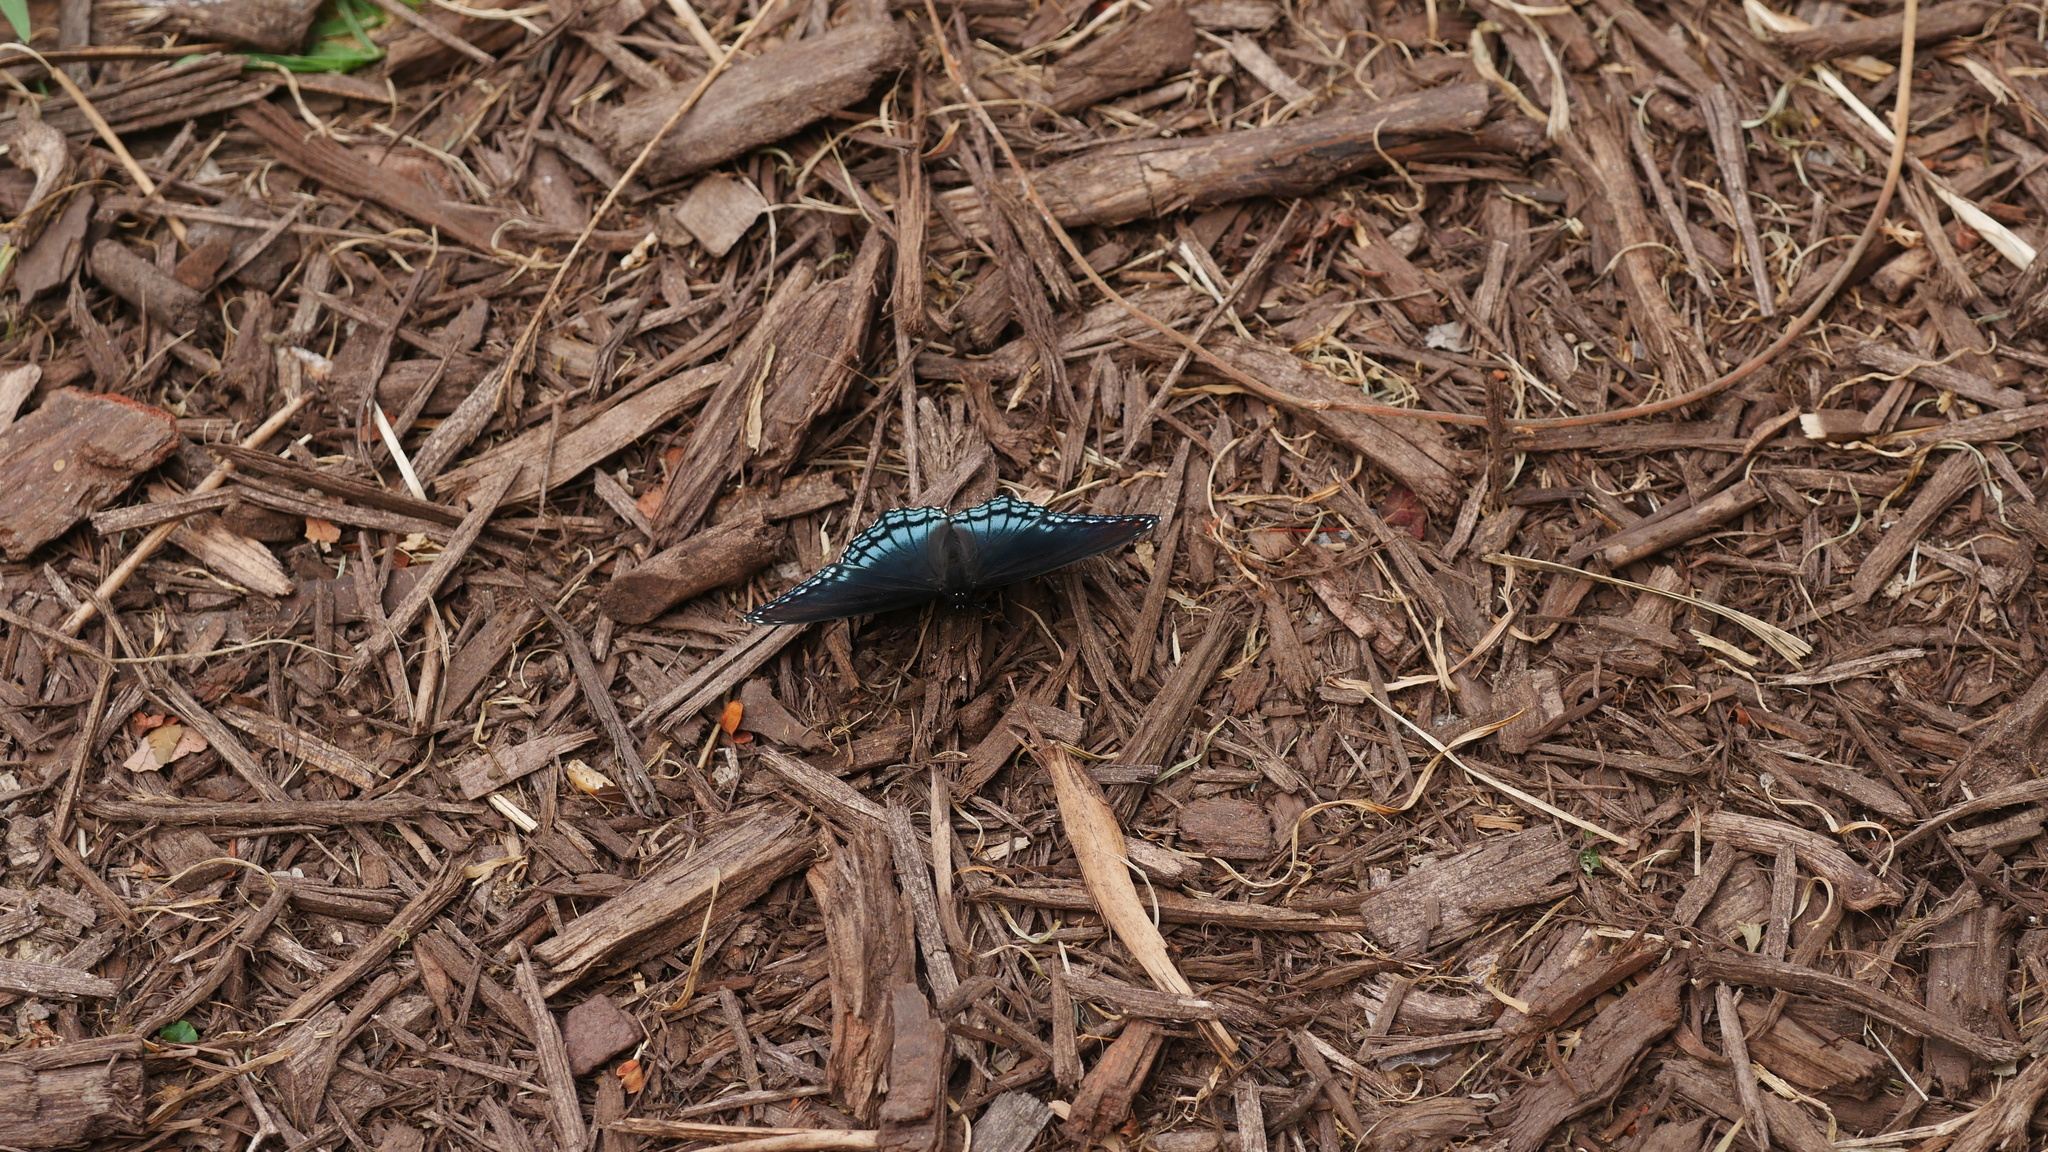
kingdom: Animalia
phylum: Arthropoda
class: Insecta
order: Lepidoptera
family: Nymphalidae
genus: Limenitis
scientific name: Limenitis astyanax
